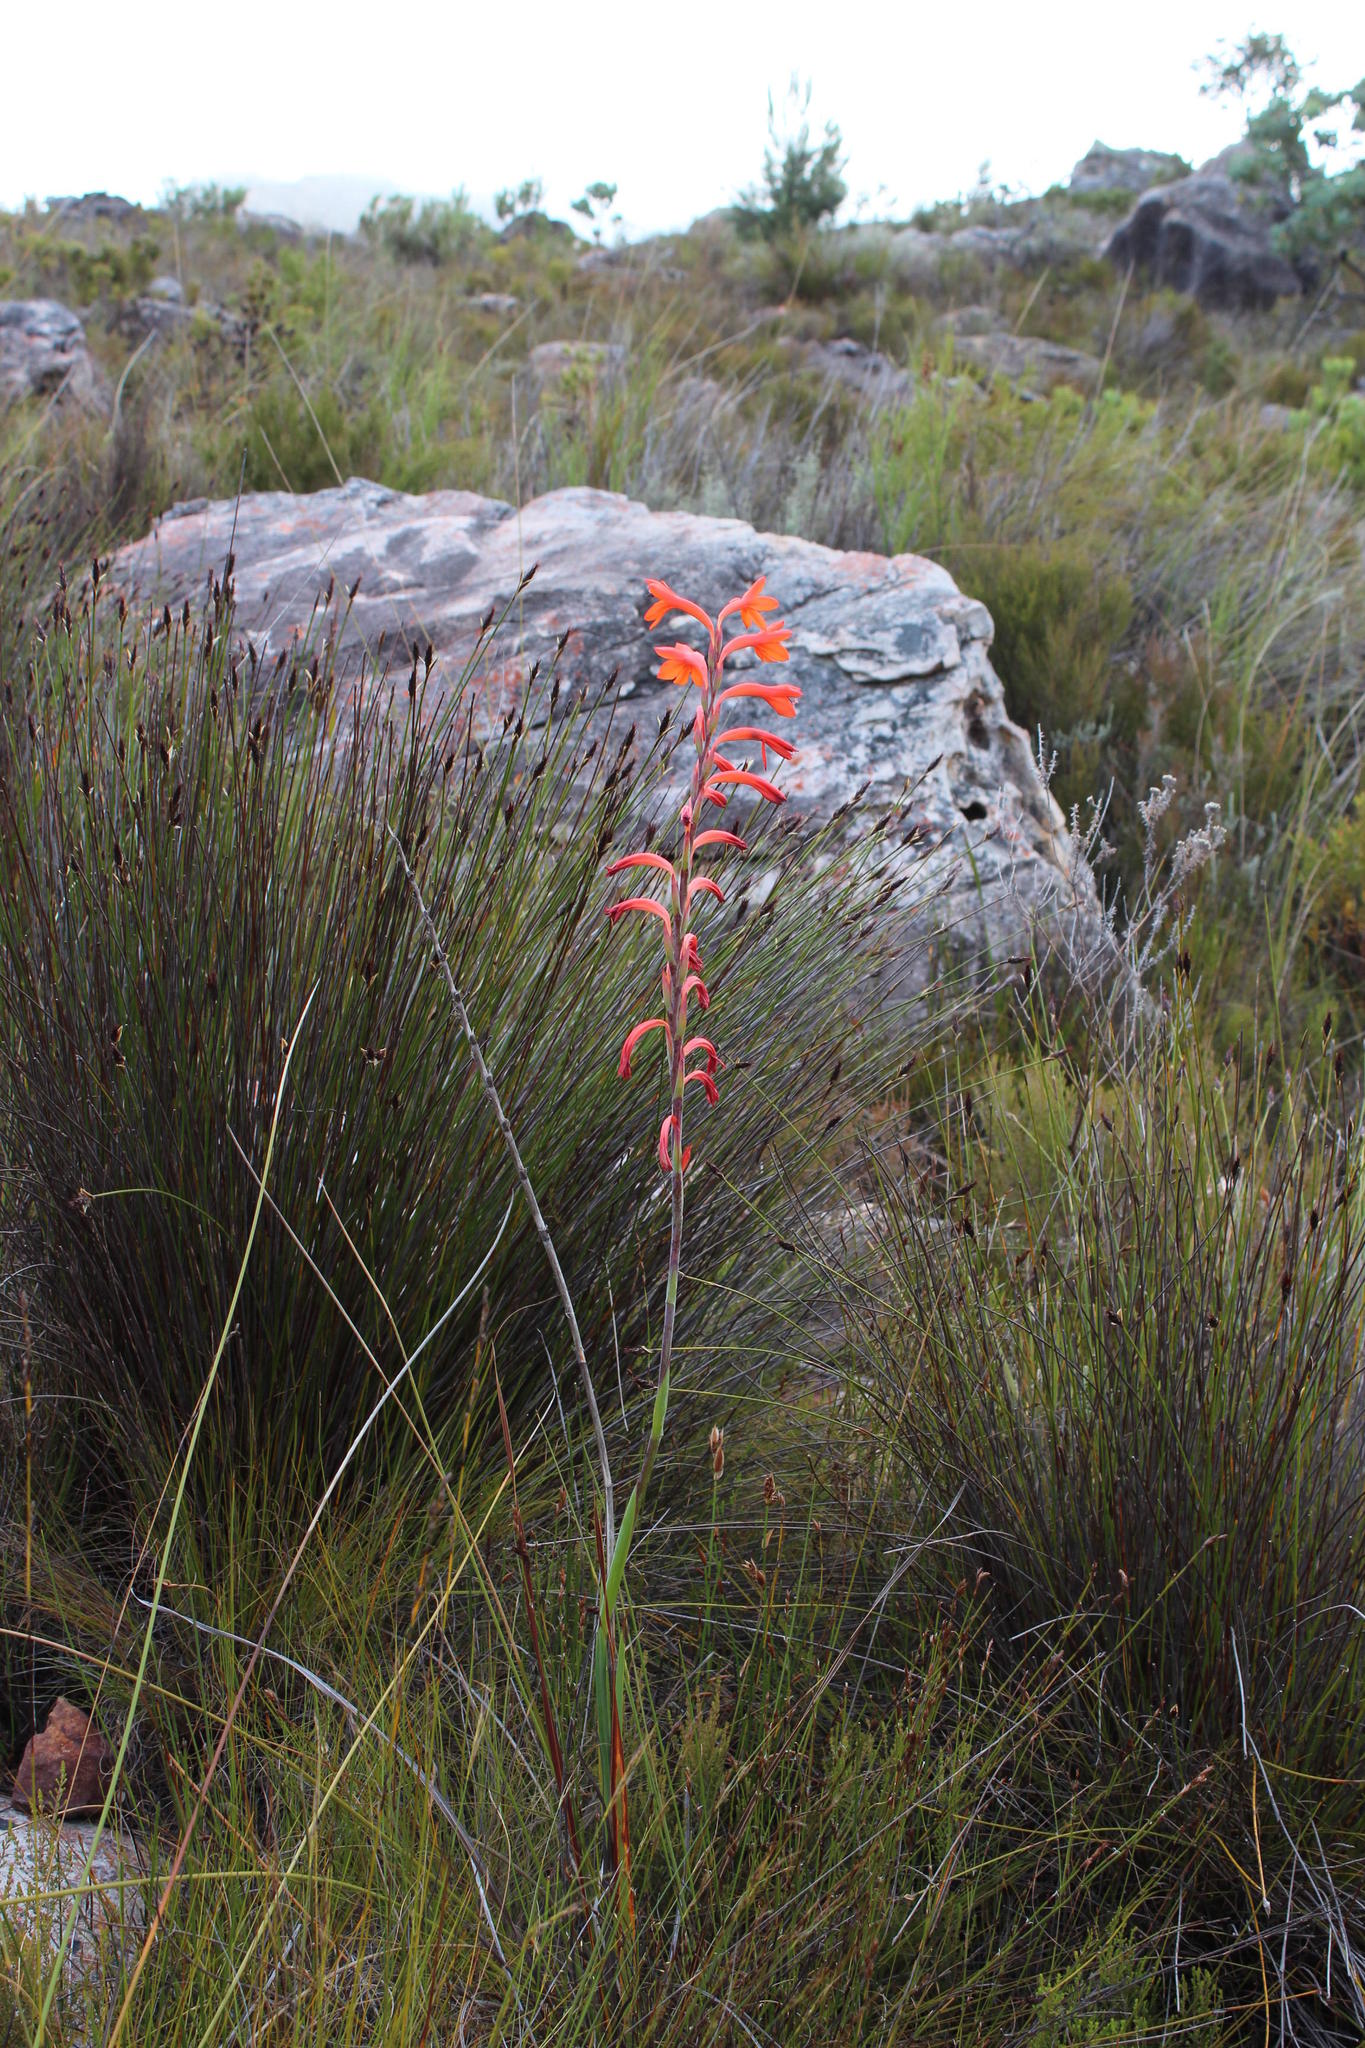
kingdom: Plantae
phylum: Tracheophyta
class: Liliopsida
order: Asparagales
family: Iridaceae
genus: Watsonia
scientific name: Watsonia angusta
